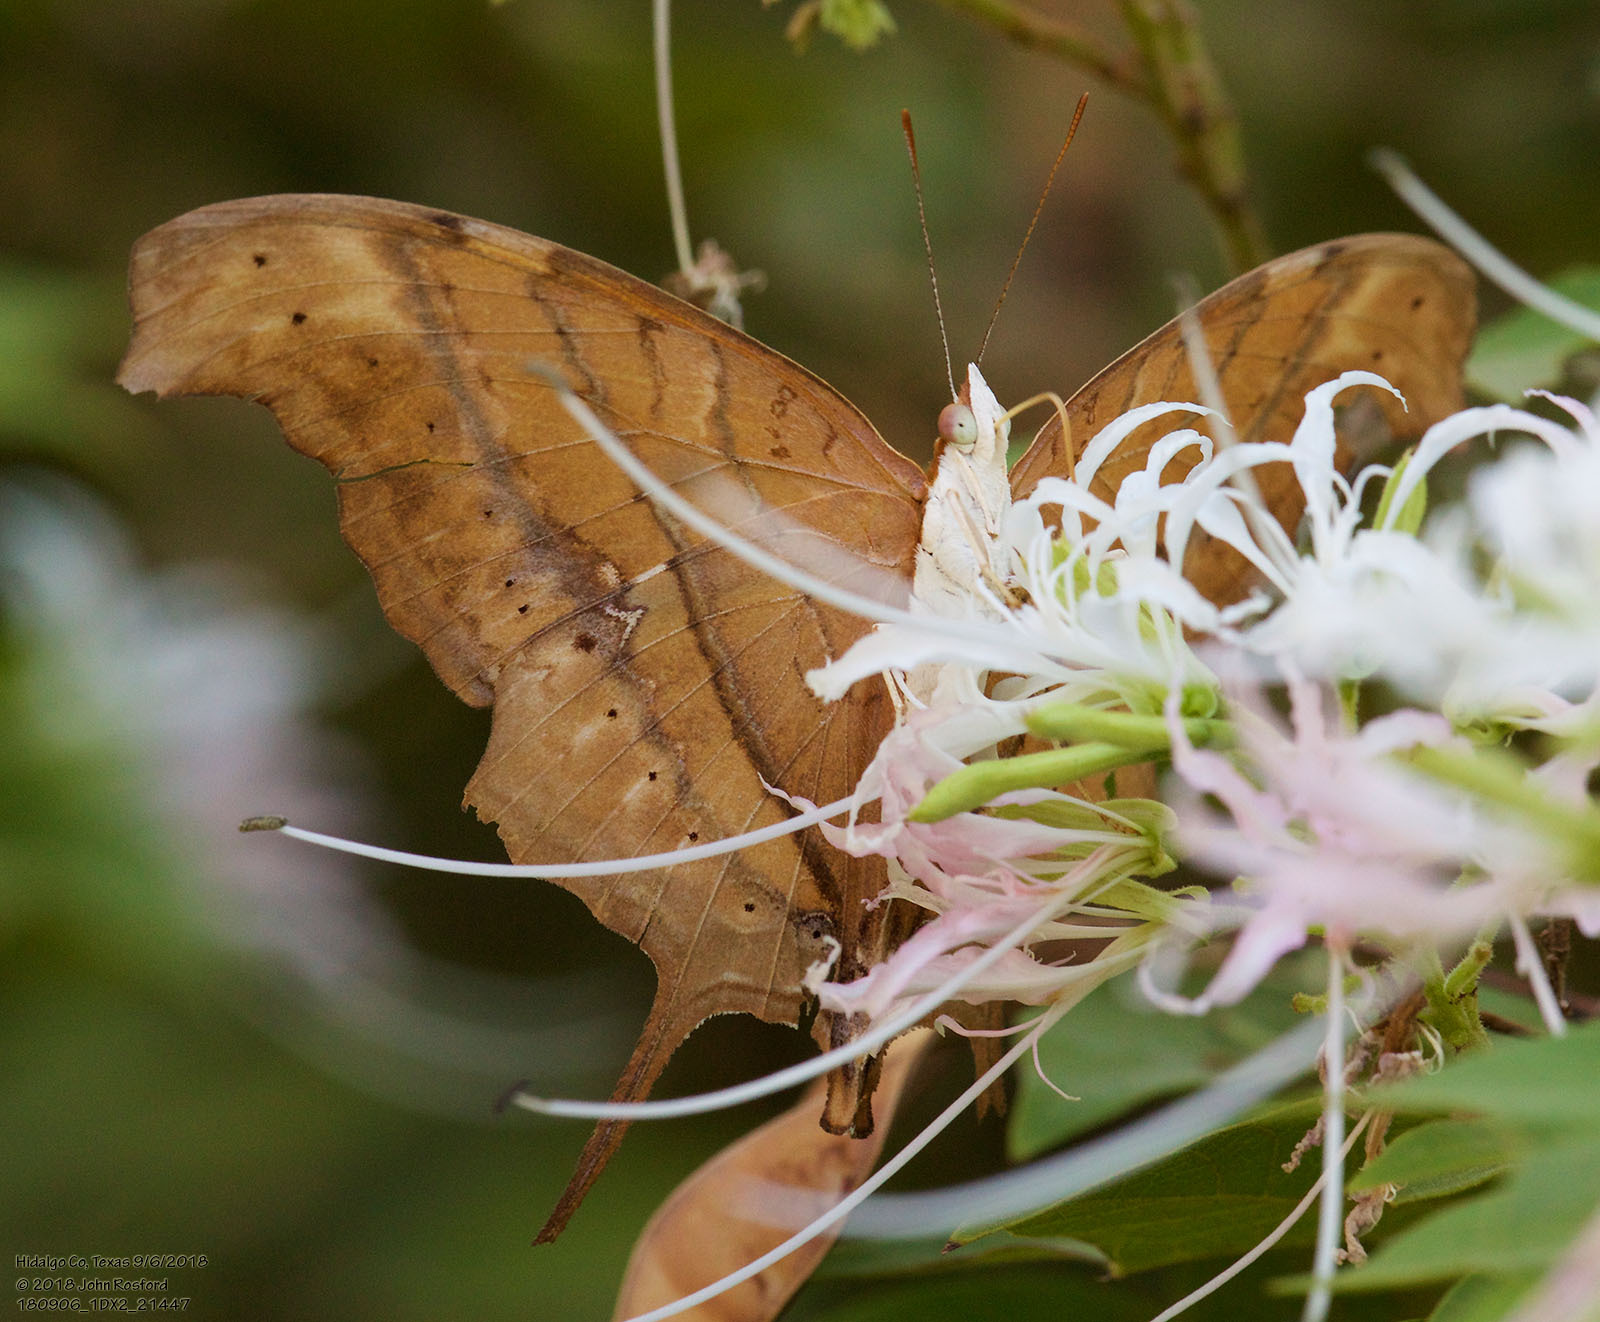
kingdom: Animalia
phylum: Arthropoda
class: Insecta
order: Lepidoptera
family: Nymphalidae
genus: Marpesia
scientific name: Marpesia petreus
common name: Red dagger wing
